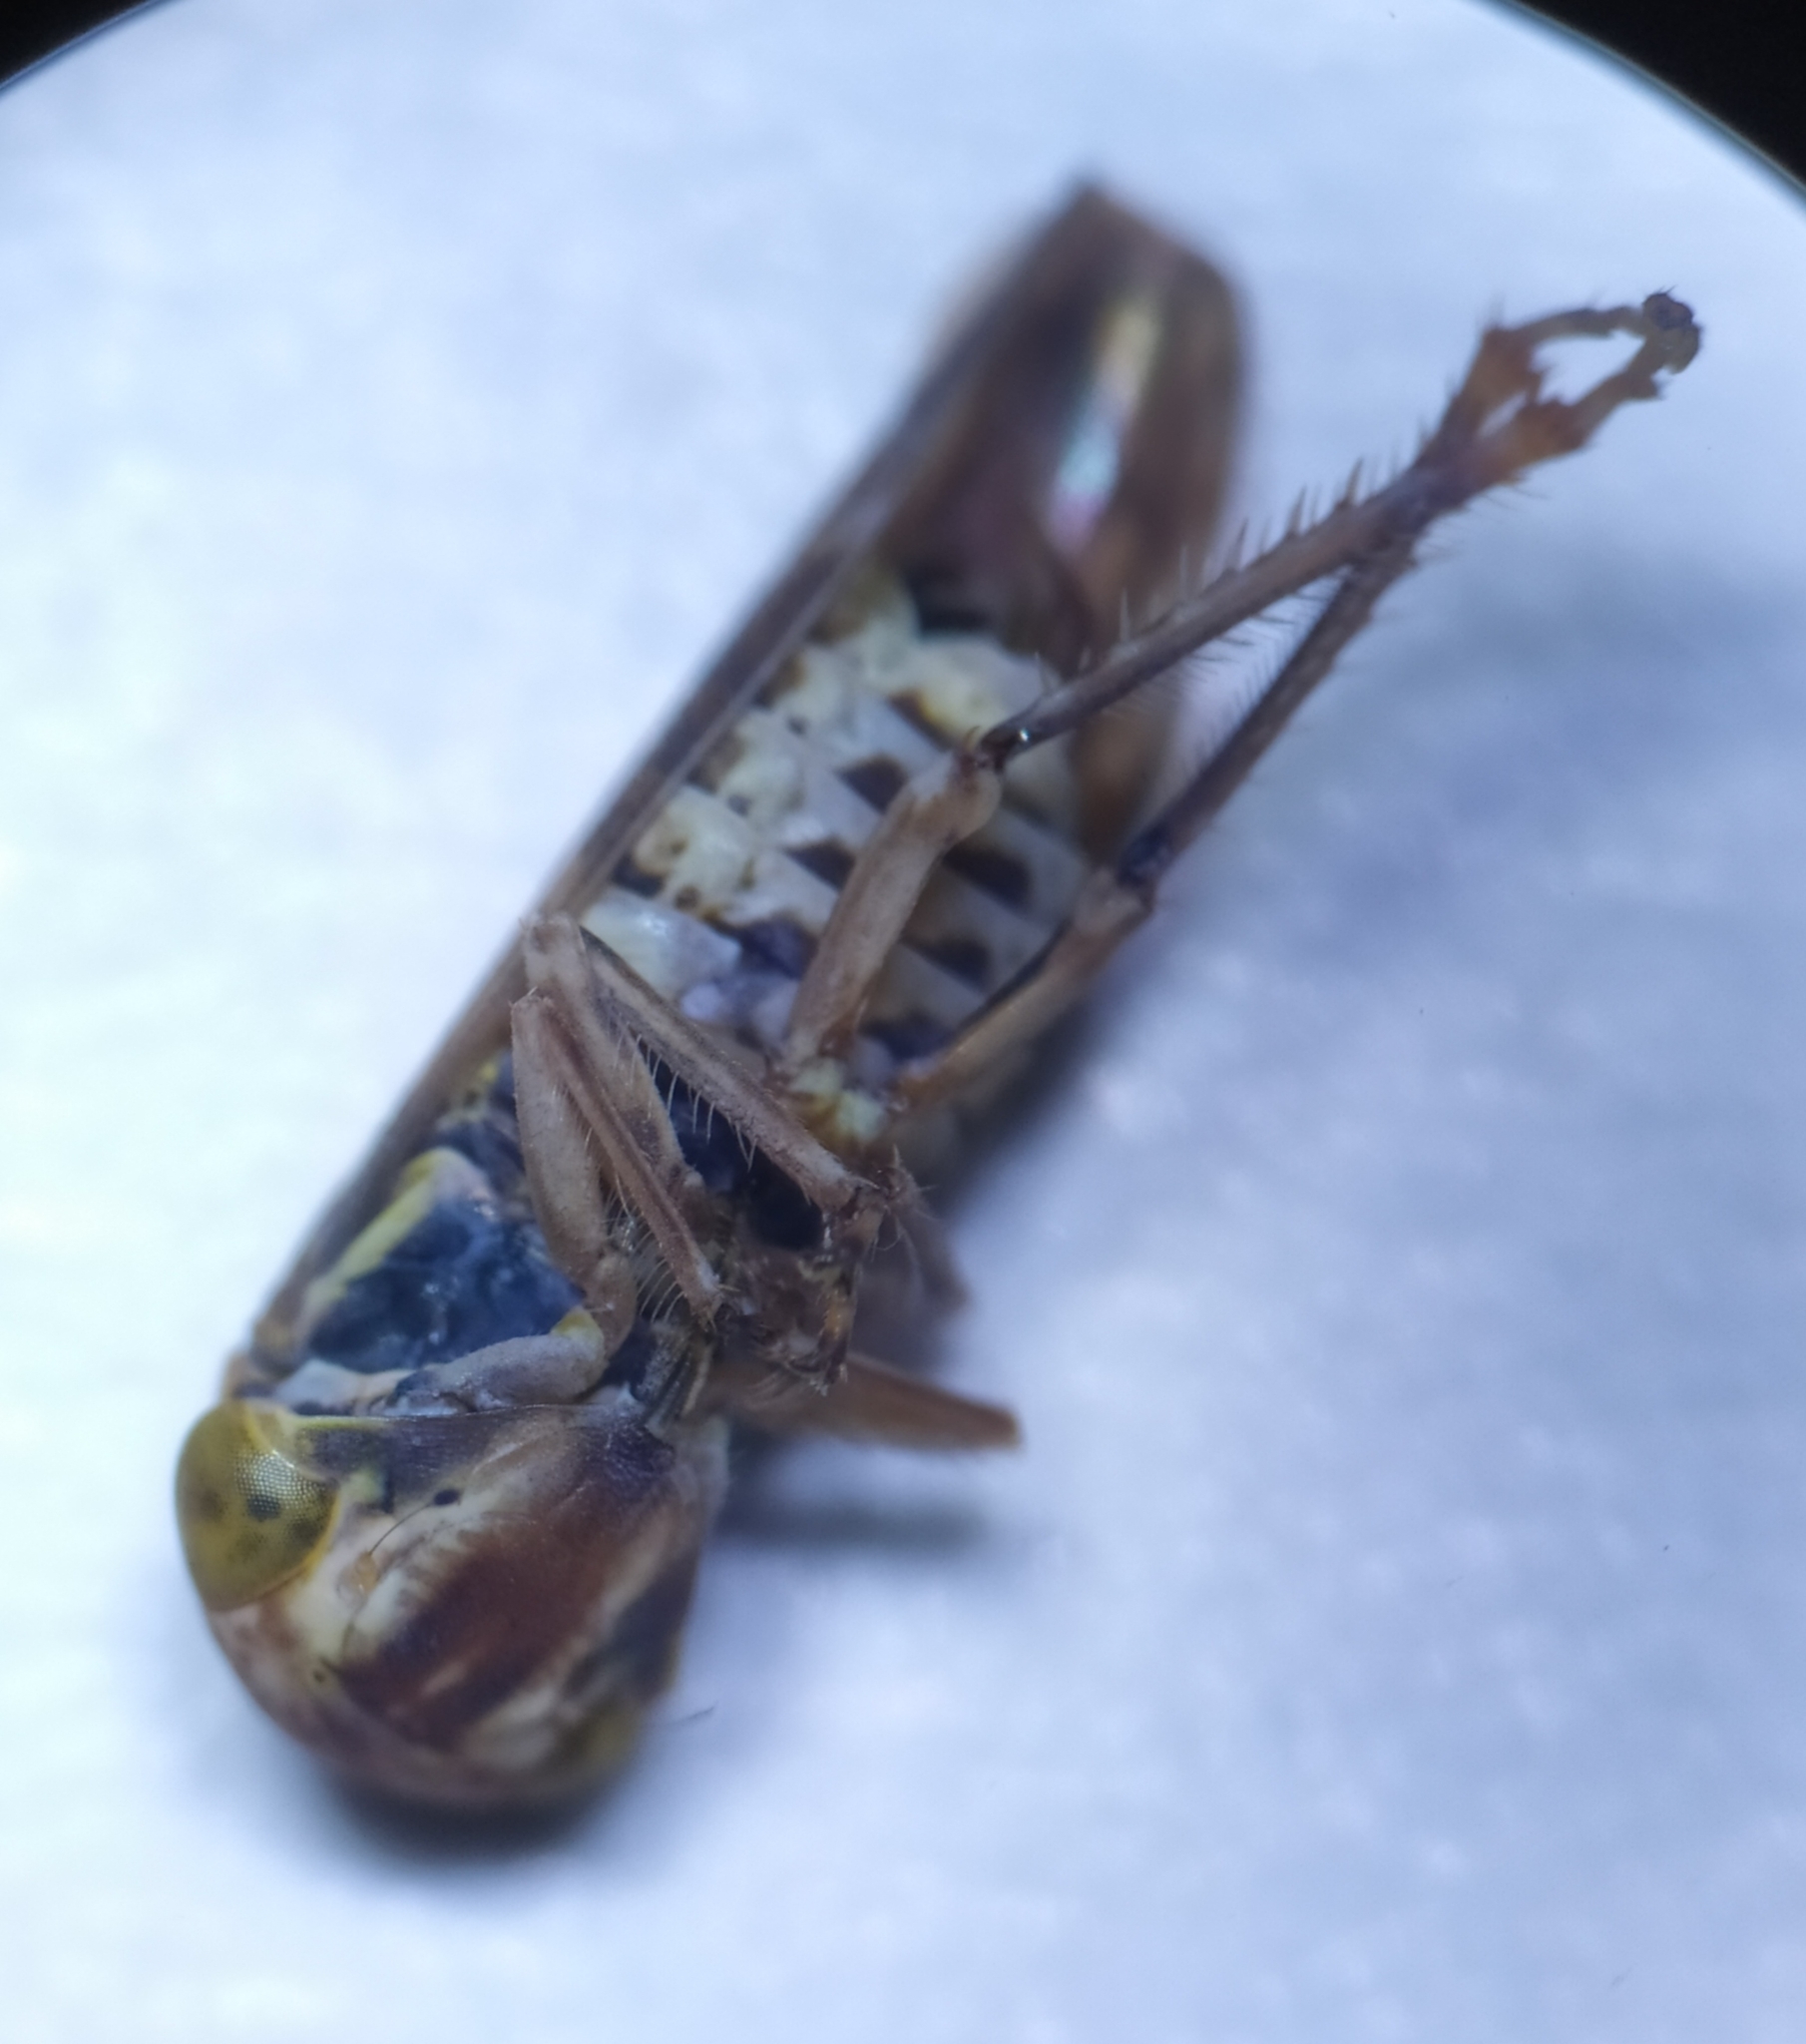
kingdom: Animalia
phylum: Arthropoda
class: Insecta
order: Hemiptera
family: Cicadellidae
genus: Acericerus
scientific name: Acericerus ribauti
